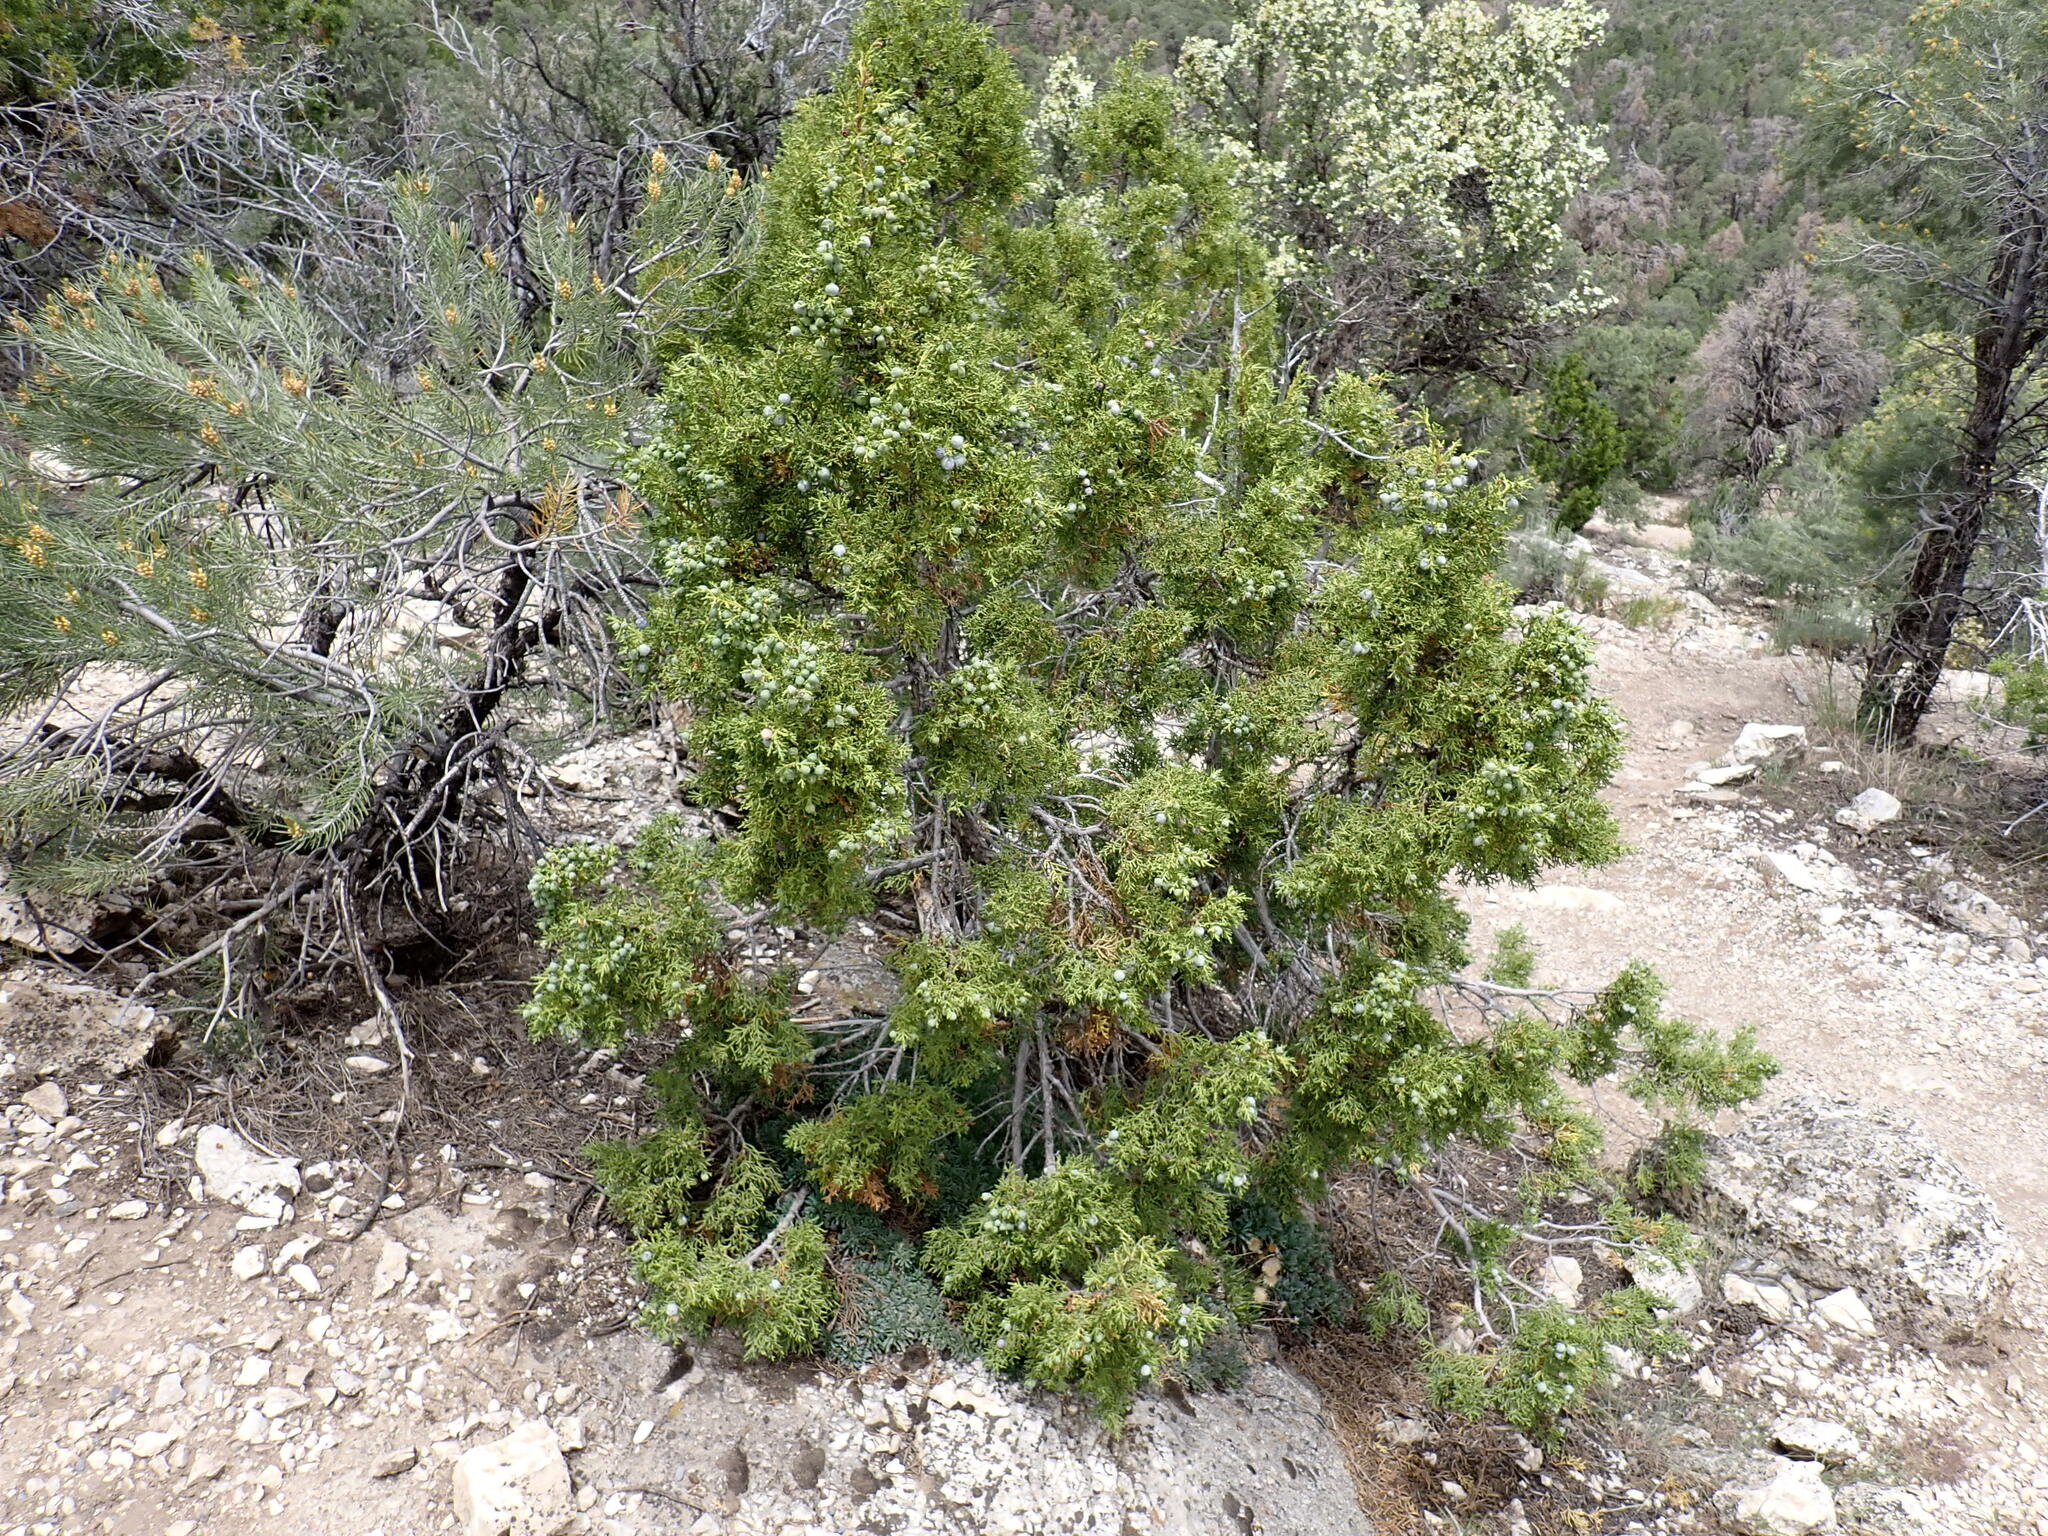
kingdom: Plantae
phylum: Tracheophyta
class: Pinopsida
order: Pinales
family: Cupressaceae
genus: Juniperus
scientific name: Juniperus osteosperma
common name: Utah juniper
